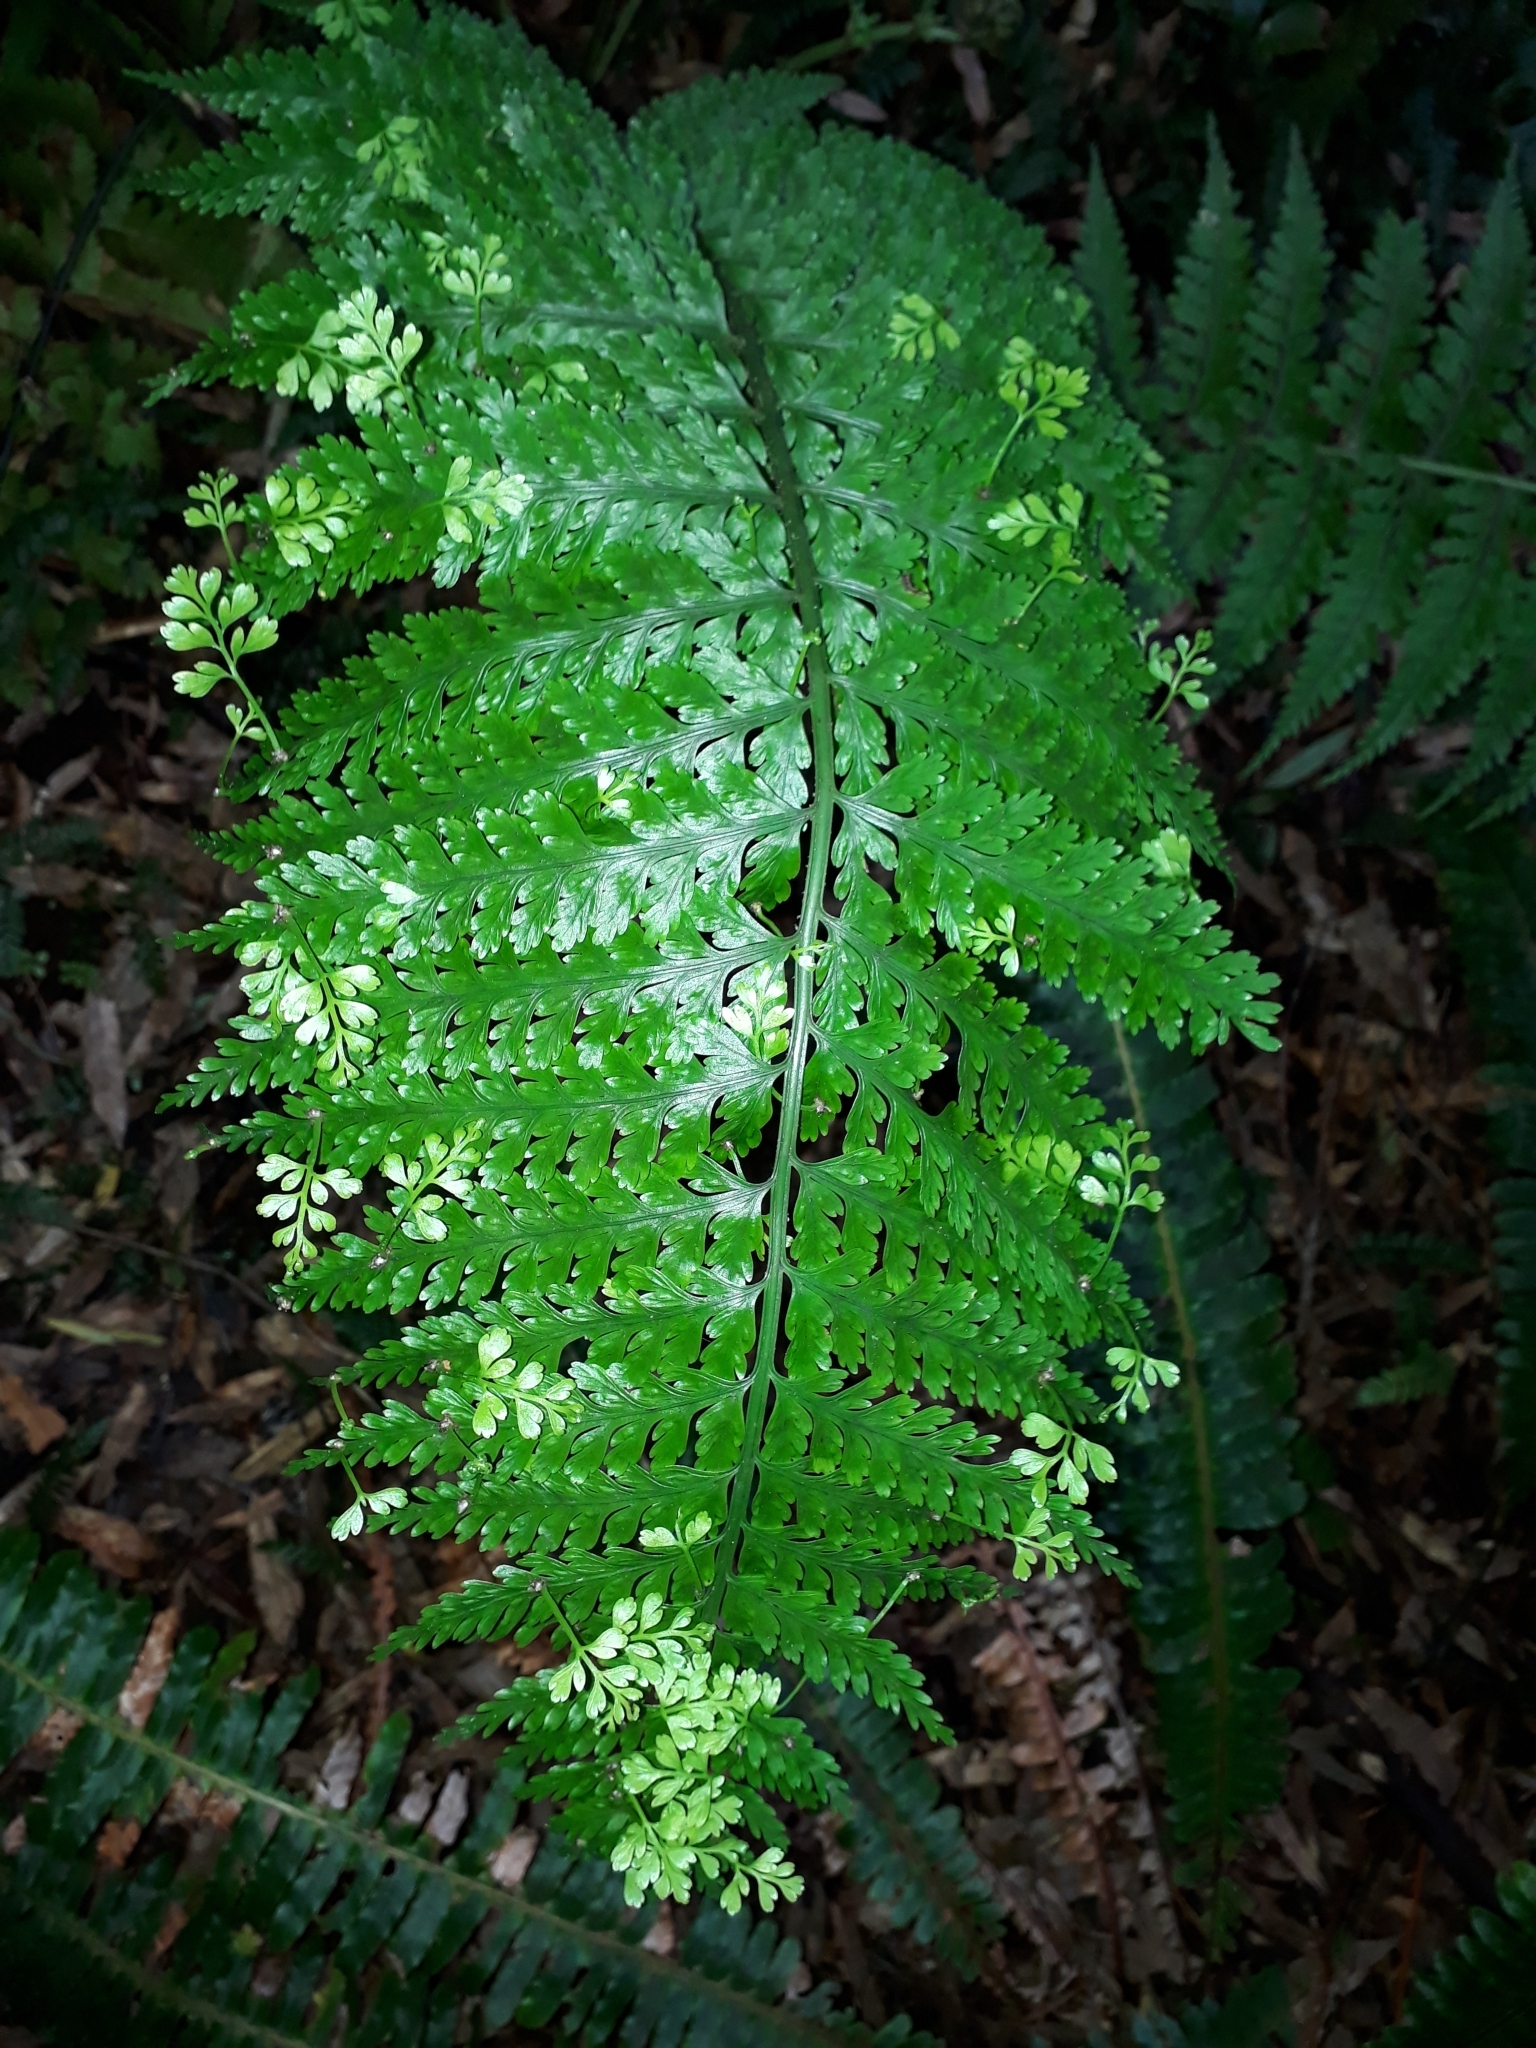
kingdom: Plantae
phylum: Tracheophyta
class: Polypodiopsida
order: Polypodiales
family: Aspleniaceae
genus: Asplenium
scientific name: Asplenium bulbiferum
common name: Mother fern
